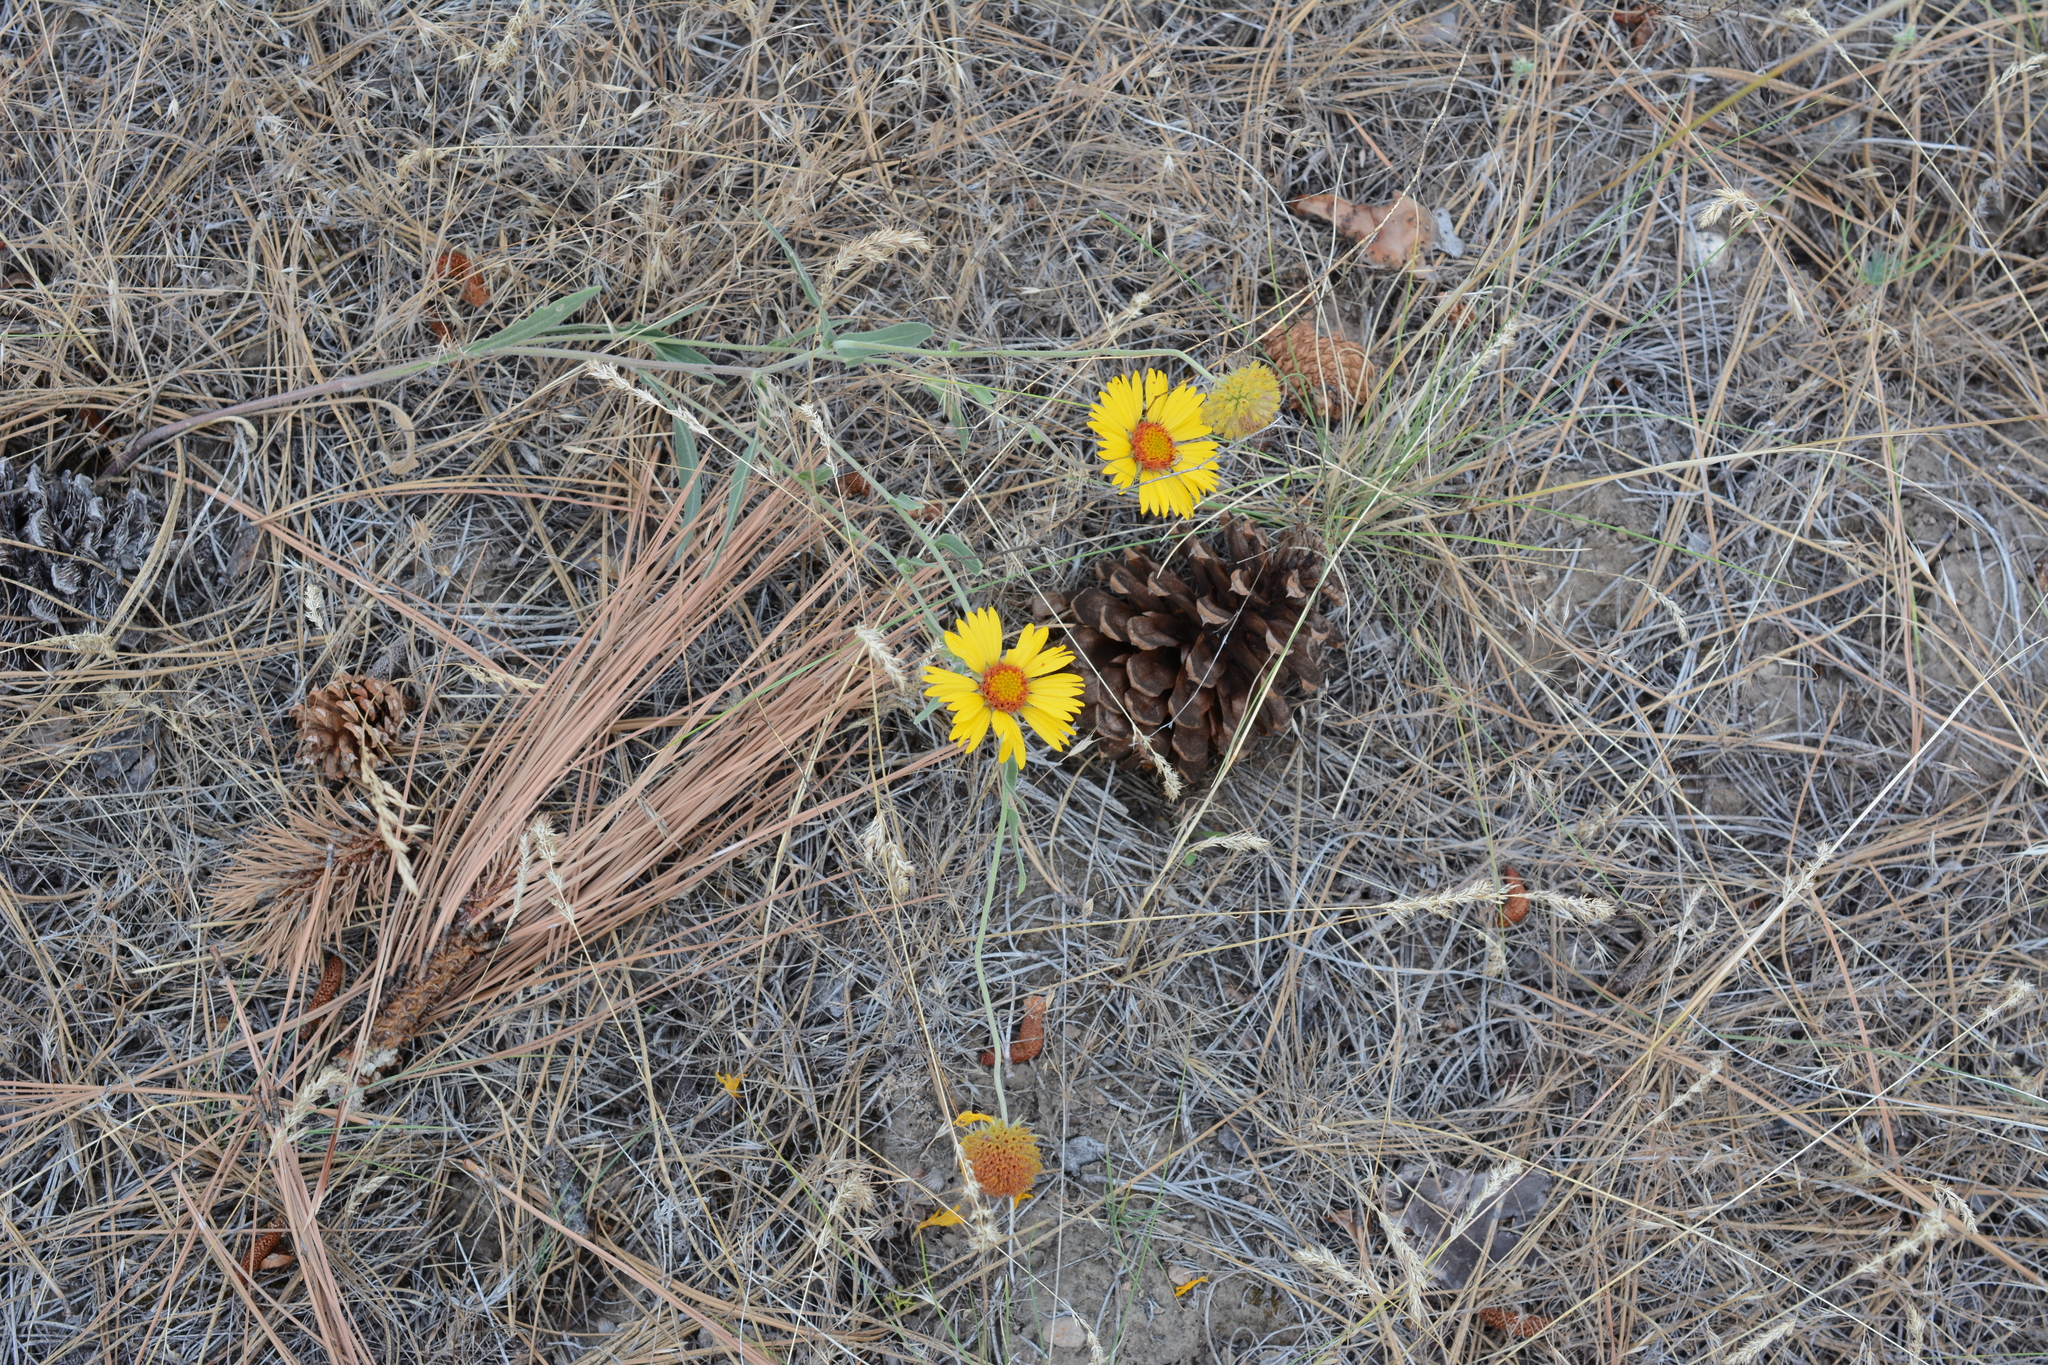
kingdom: Plantae
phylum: Tracheophyta
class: Magnoliopsida
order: Asterales
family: Asteraceae
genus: Gaillardia
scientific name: Gaillardia aristata
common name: Blanket-flower
